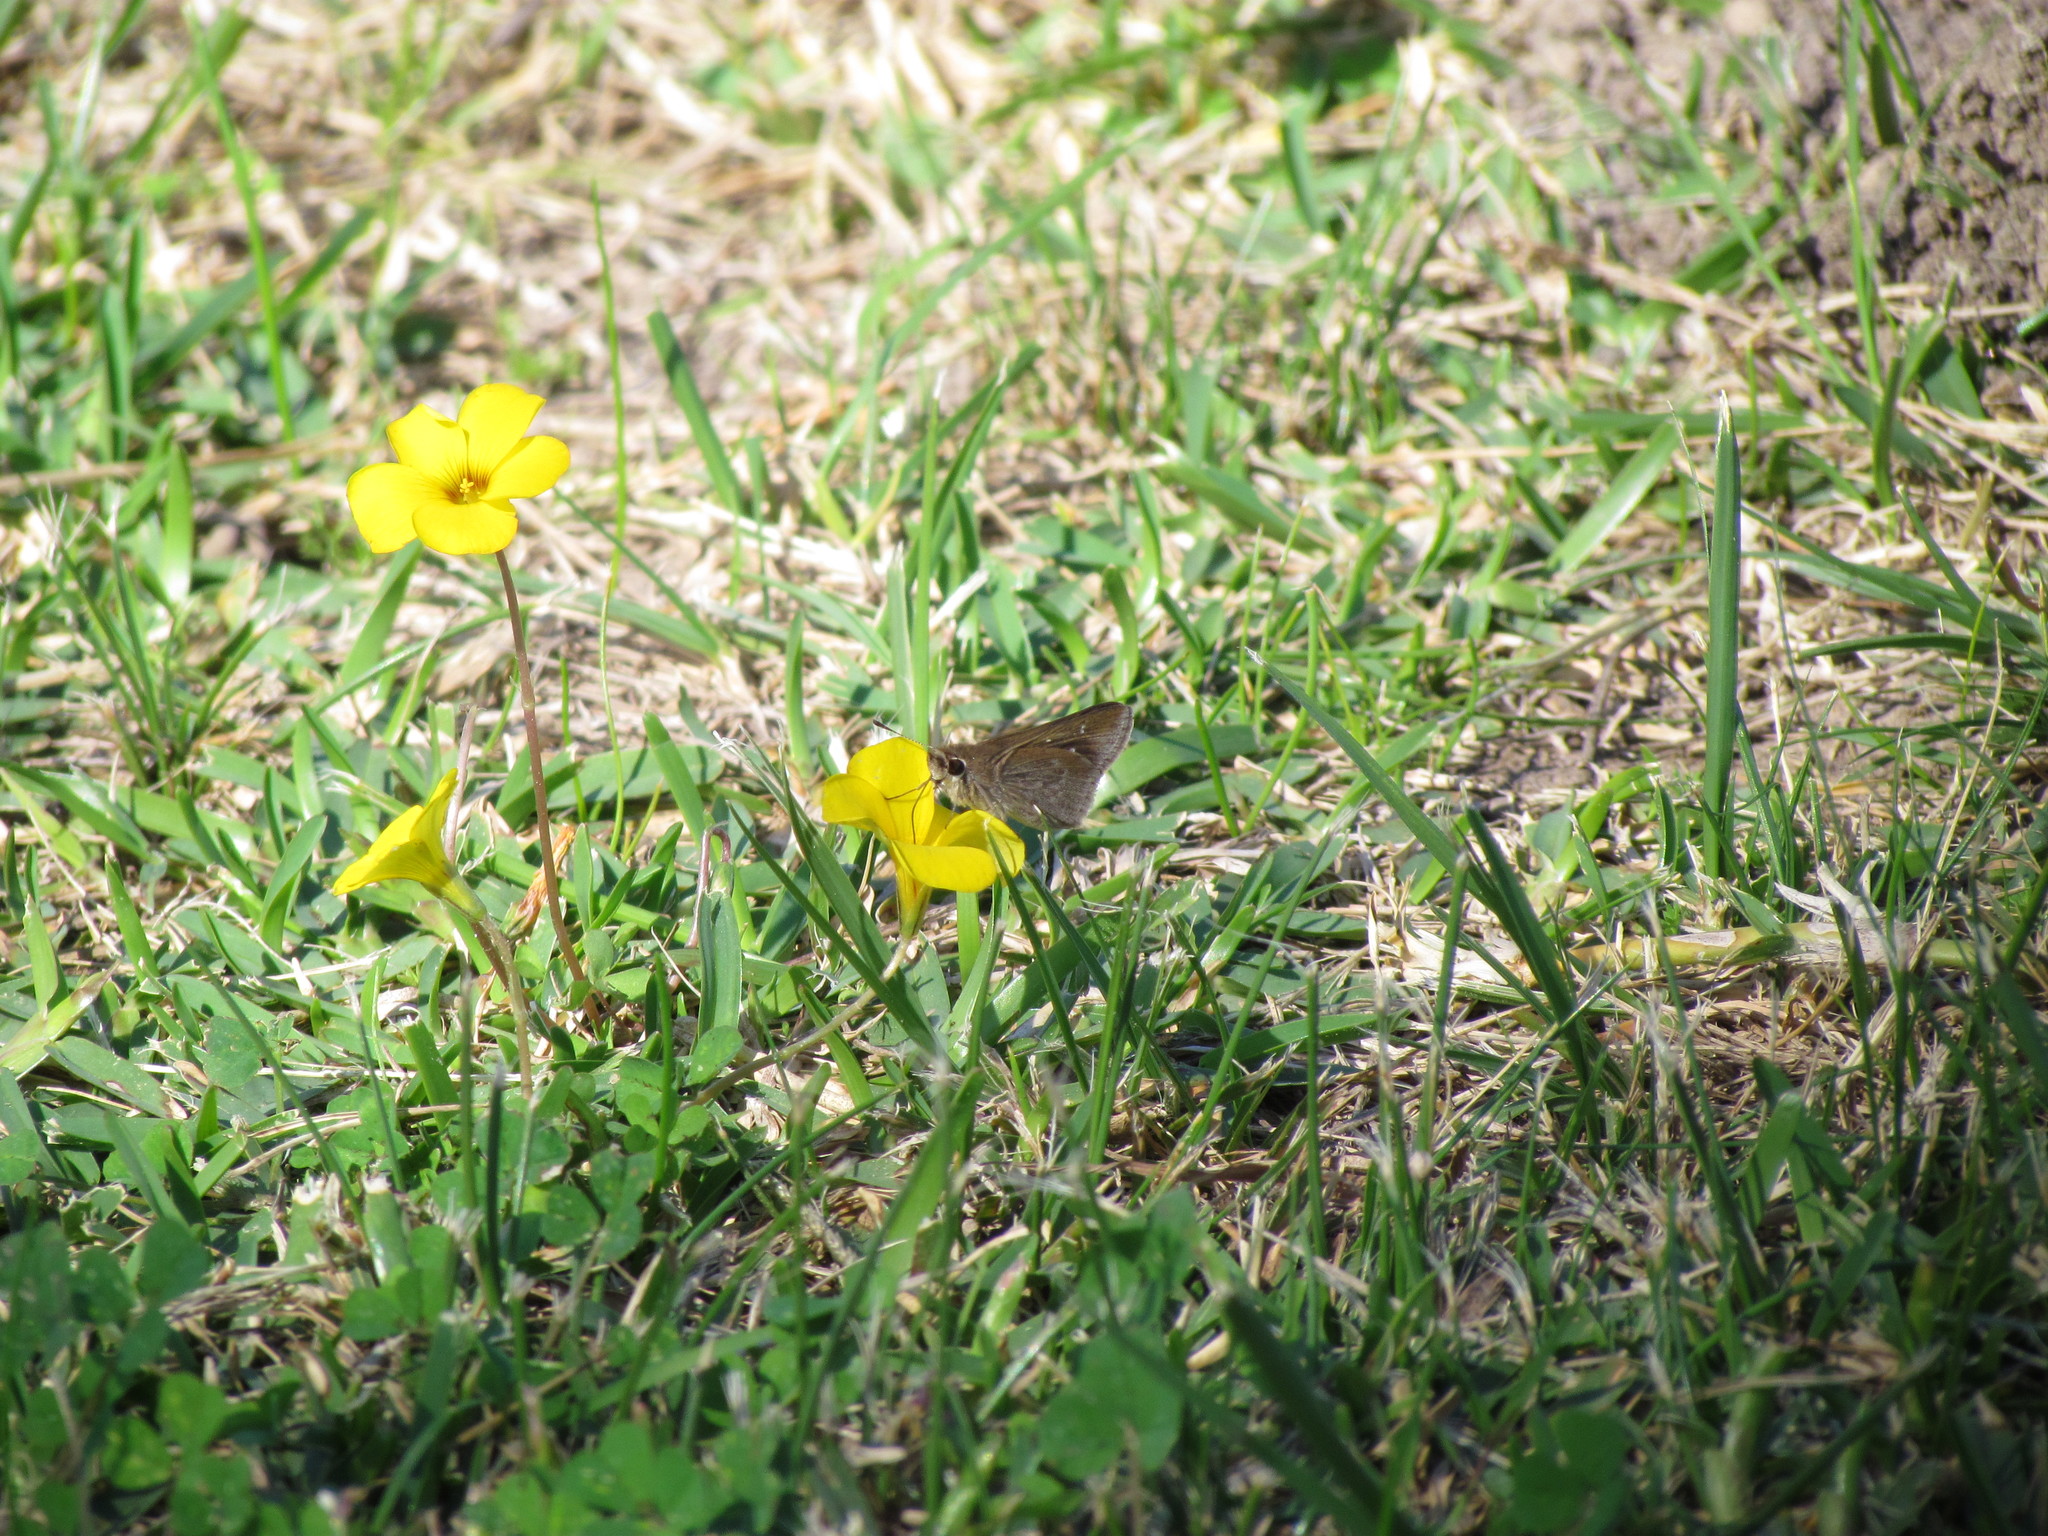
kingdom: Animalia
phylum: Arthropoda
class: Insecta
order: Lepidoptera
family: Hesperiidae
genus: Lerodea
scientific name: Lerodea eufala
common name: Eufala skipper
